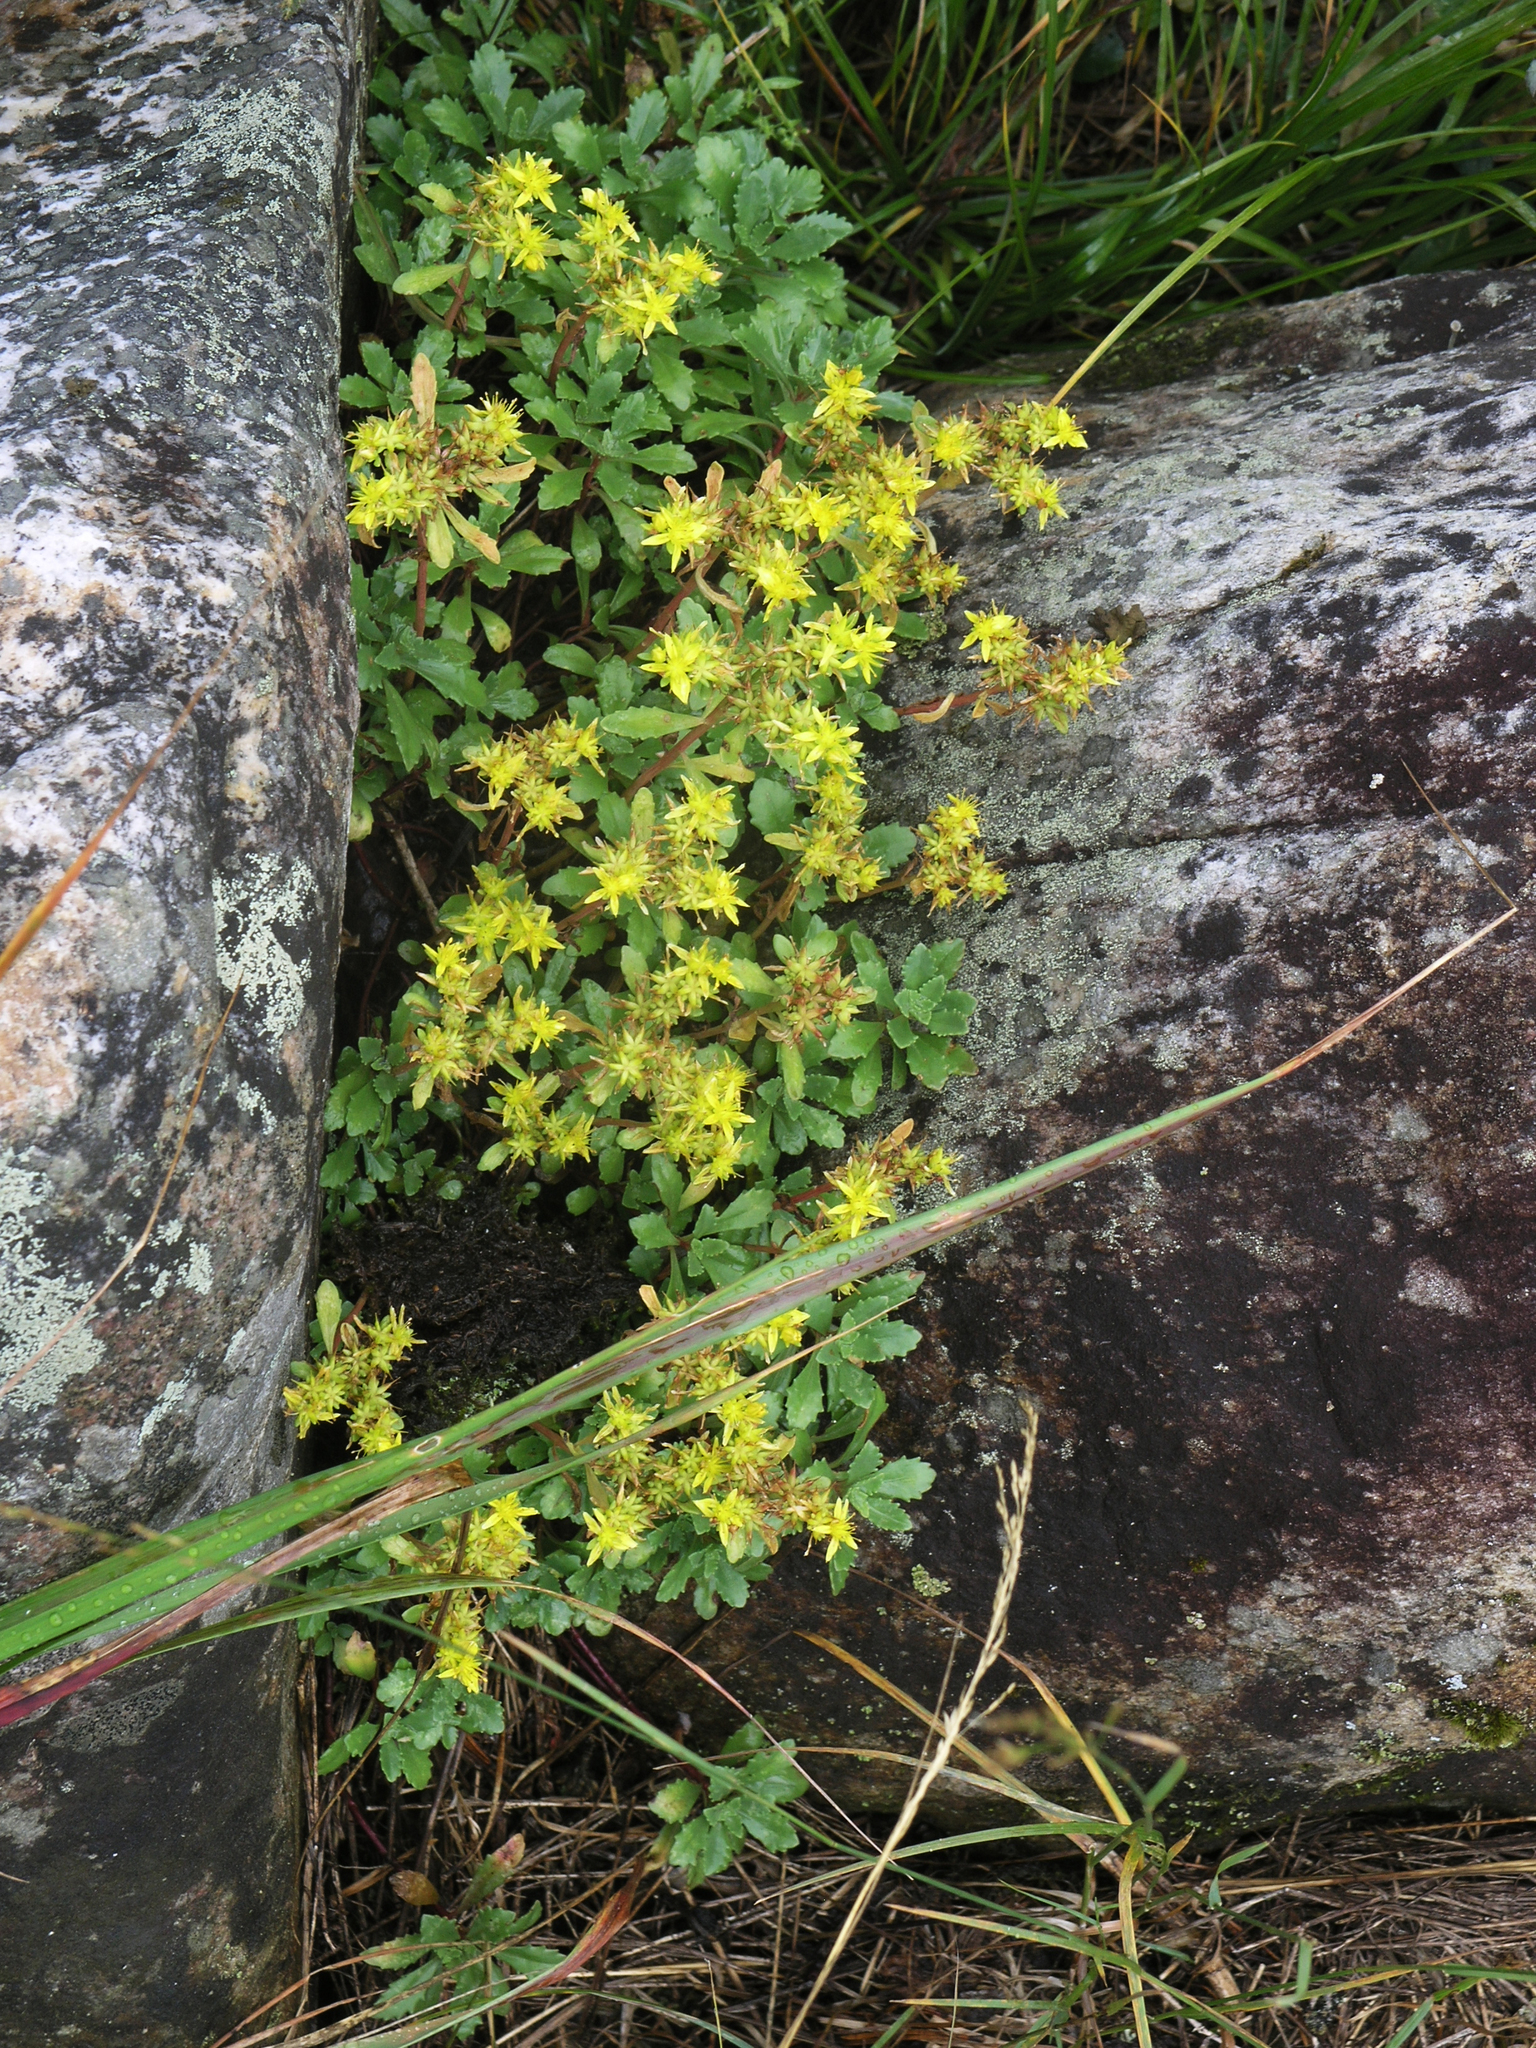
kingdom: Plantae
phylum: Tracheophyta
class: Magnoliopsida
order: Saxifragales
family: Crassulaceae
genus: Phedimus
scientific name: Phedimus hybridus
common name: Hybrid stonecrop
